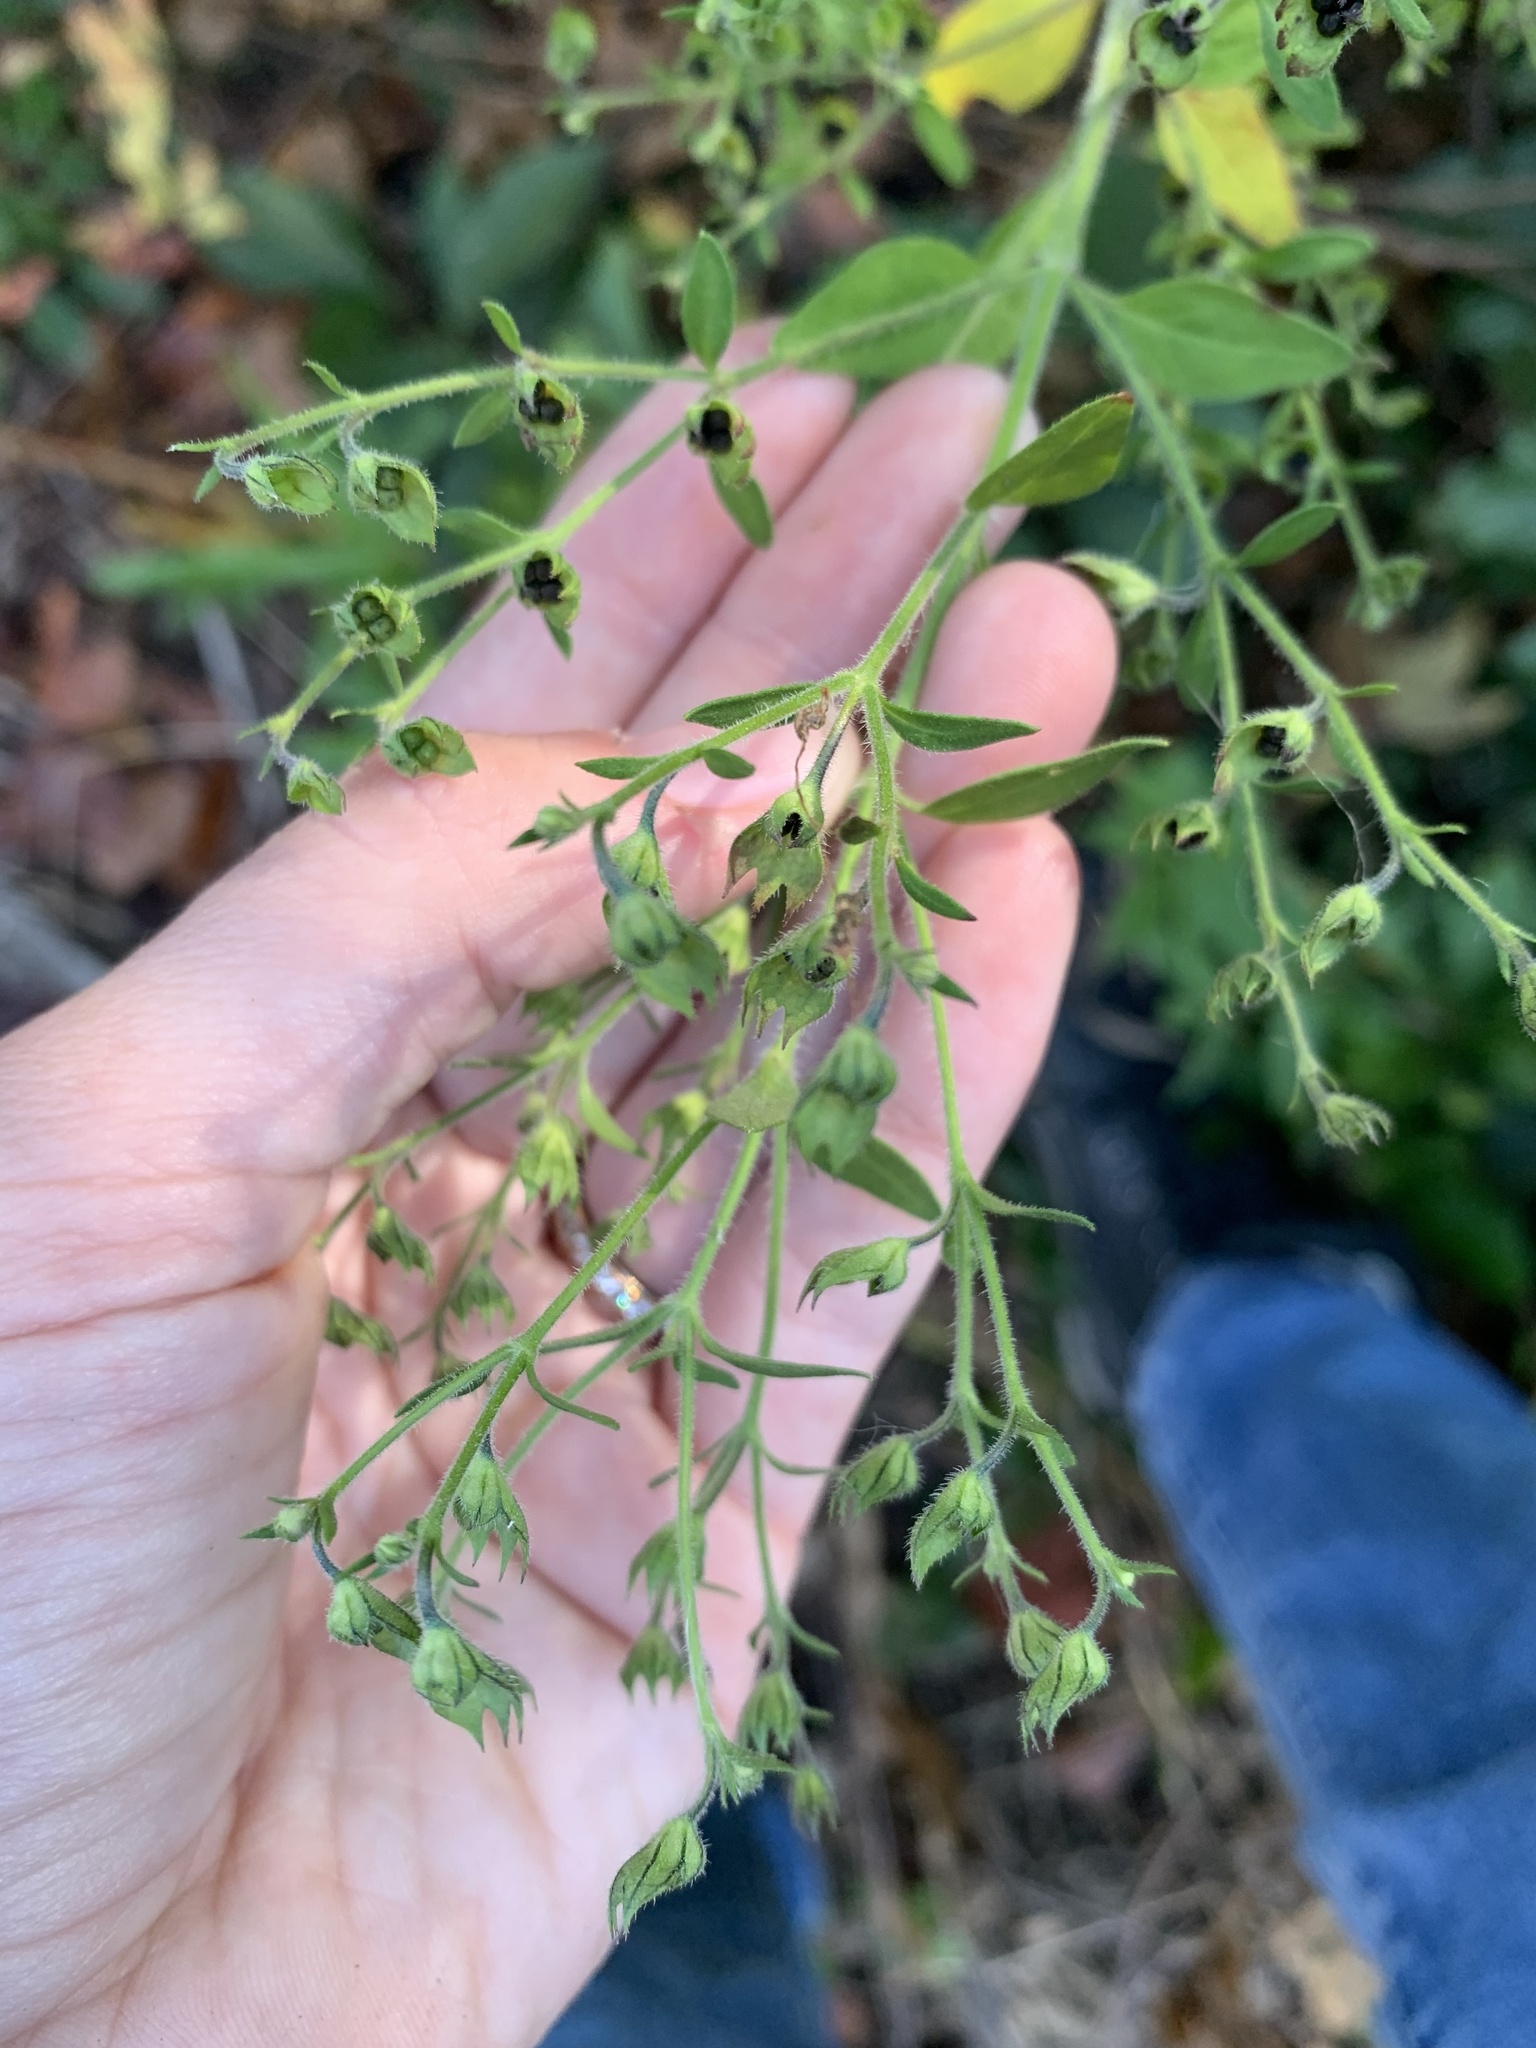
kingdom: Plantae
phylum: Tracheophyta
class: Magnoliopsida
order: Lamiales
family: Lamiaceae
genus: Trichostema
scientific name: Trichostema dichotomum
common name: Bastard pennyroyal
